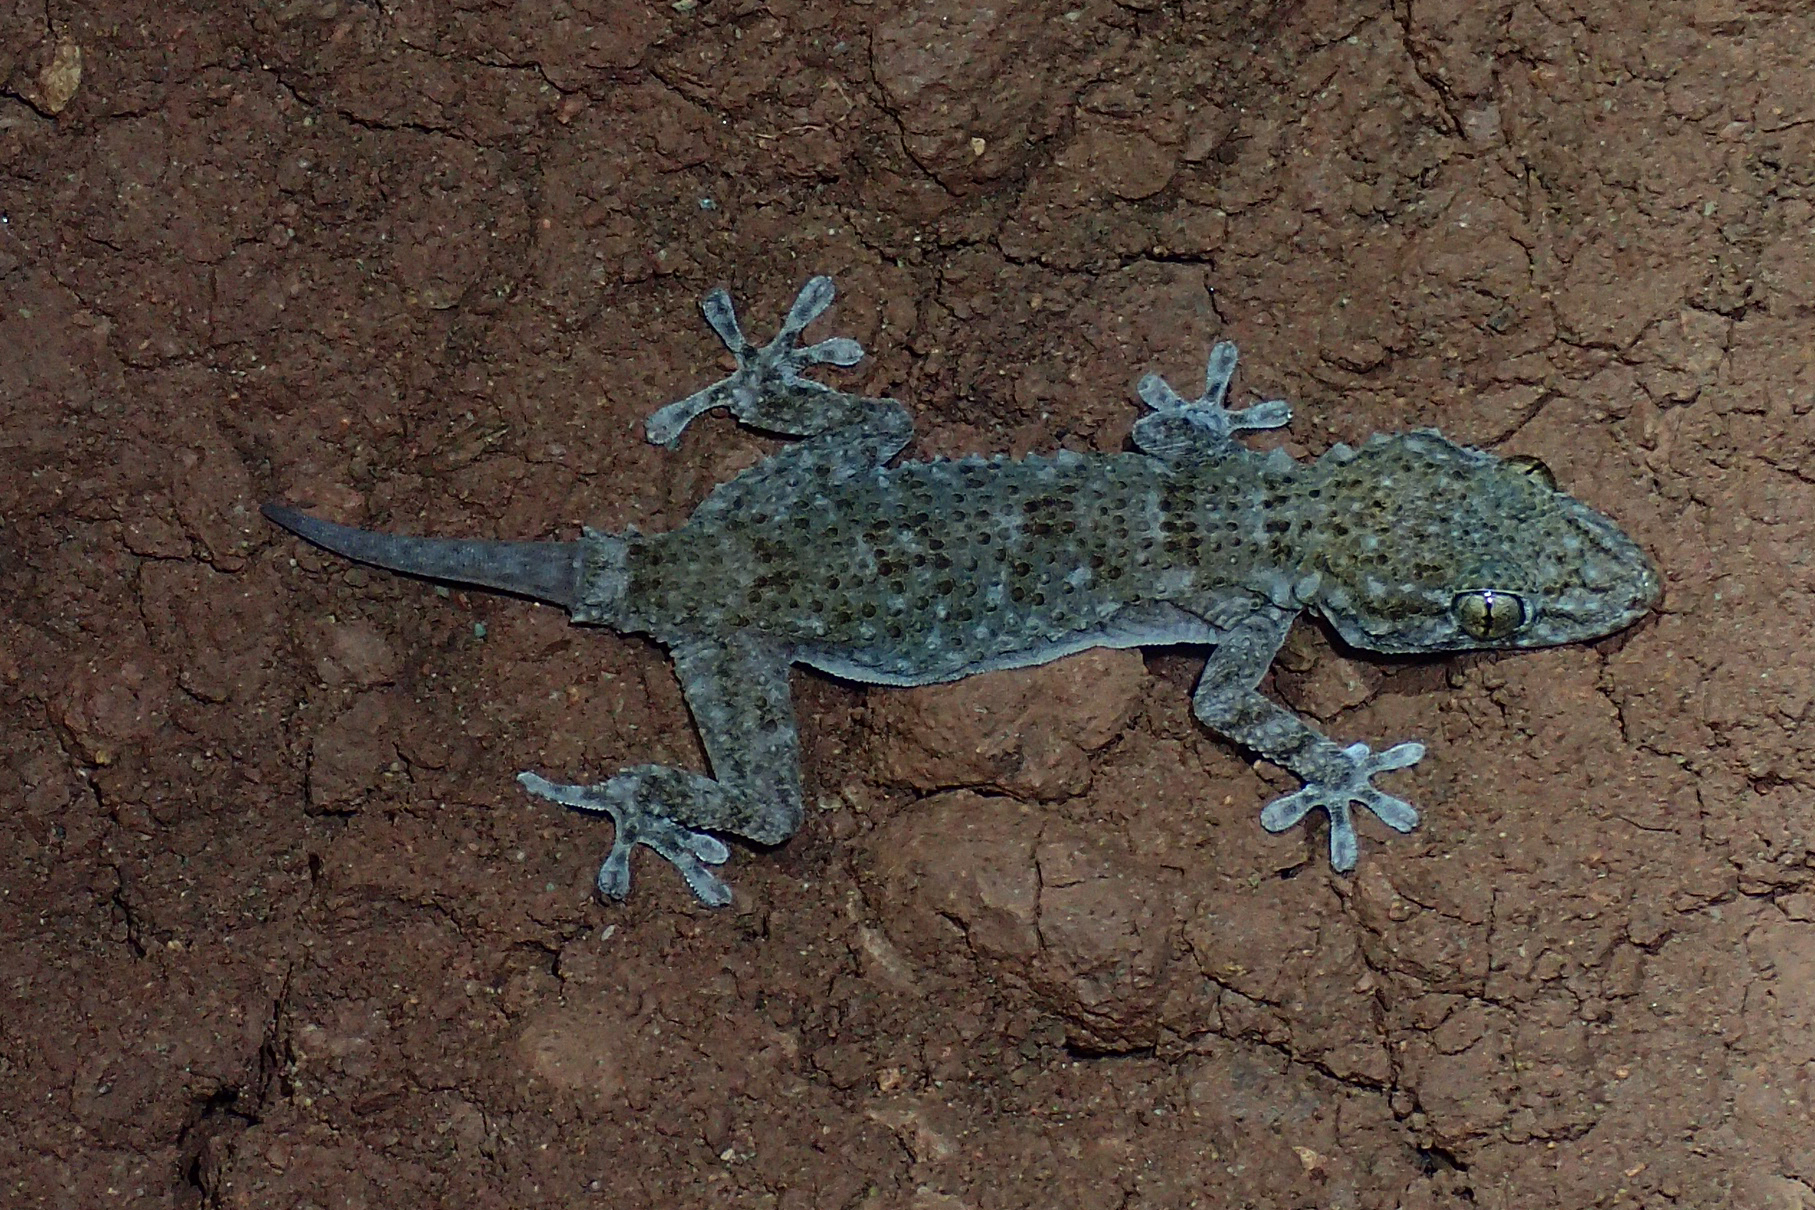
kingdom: Animalia
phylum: Chordata
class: Squamata
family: Phyllodactylidae
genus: Tarentola
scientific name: Tarentola mauritanica
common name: Moorish gecko
